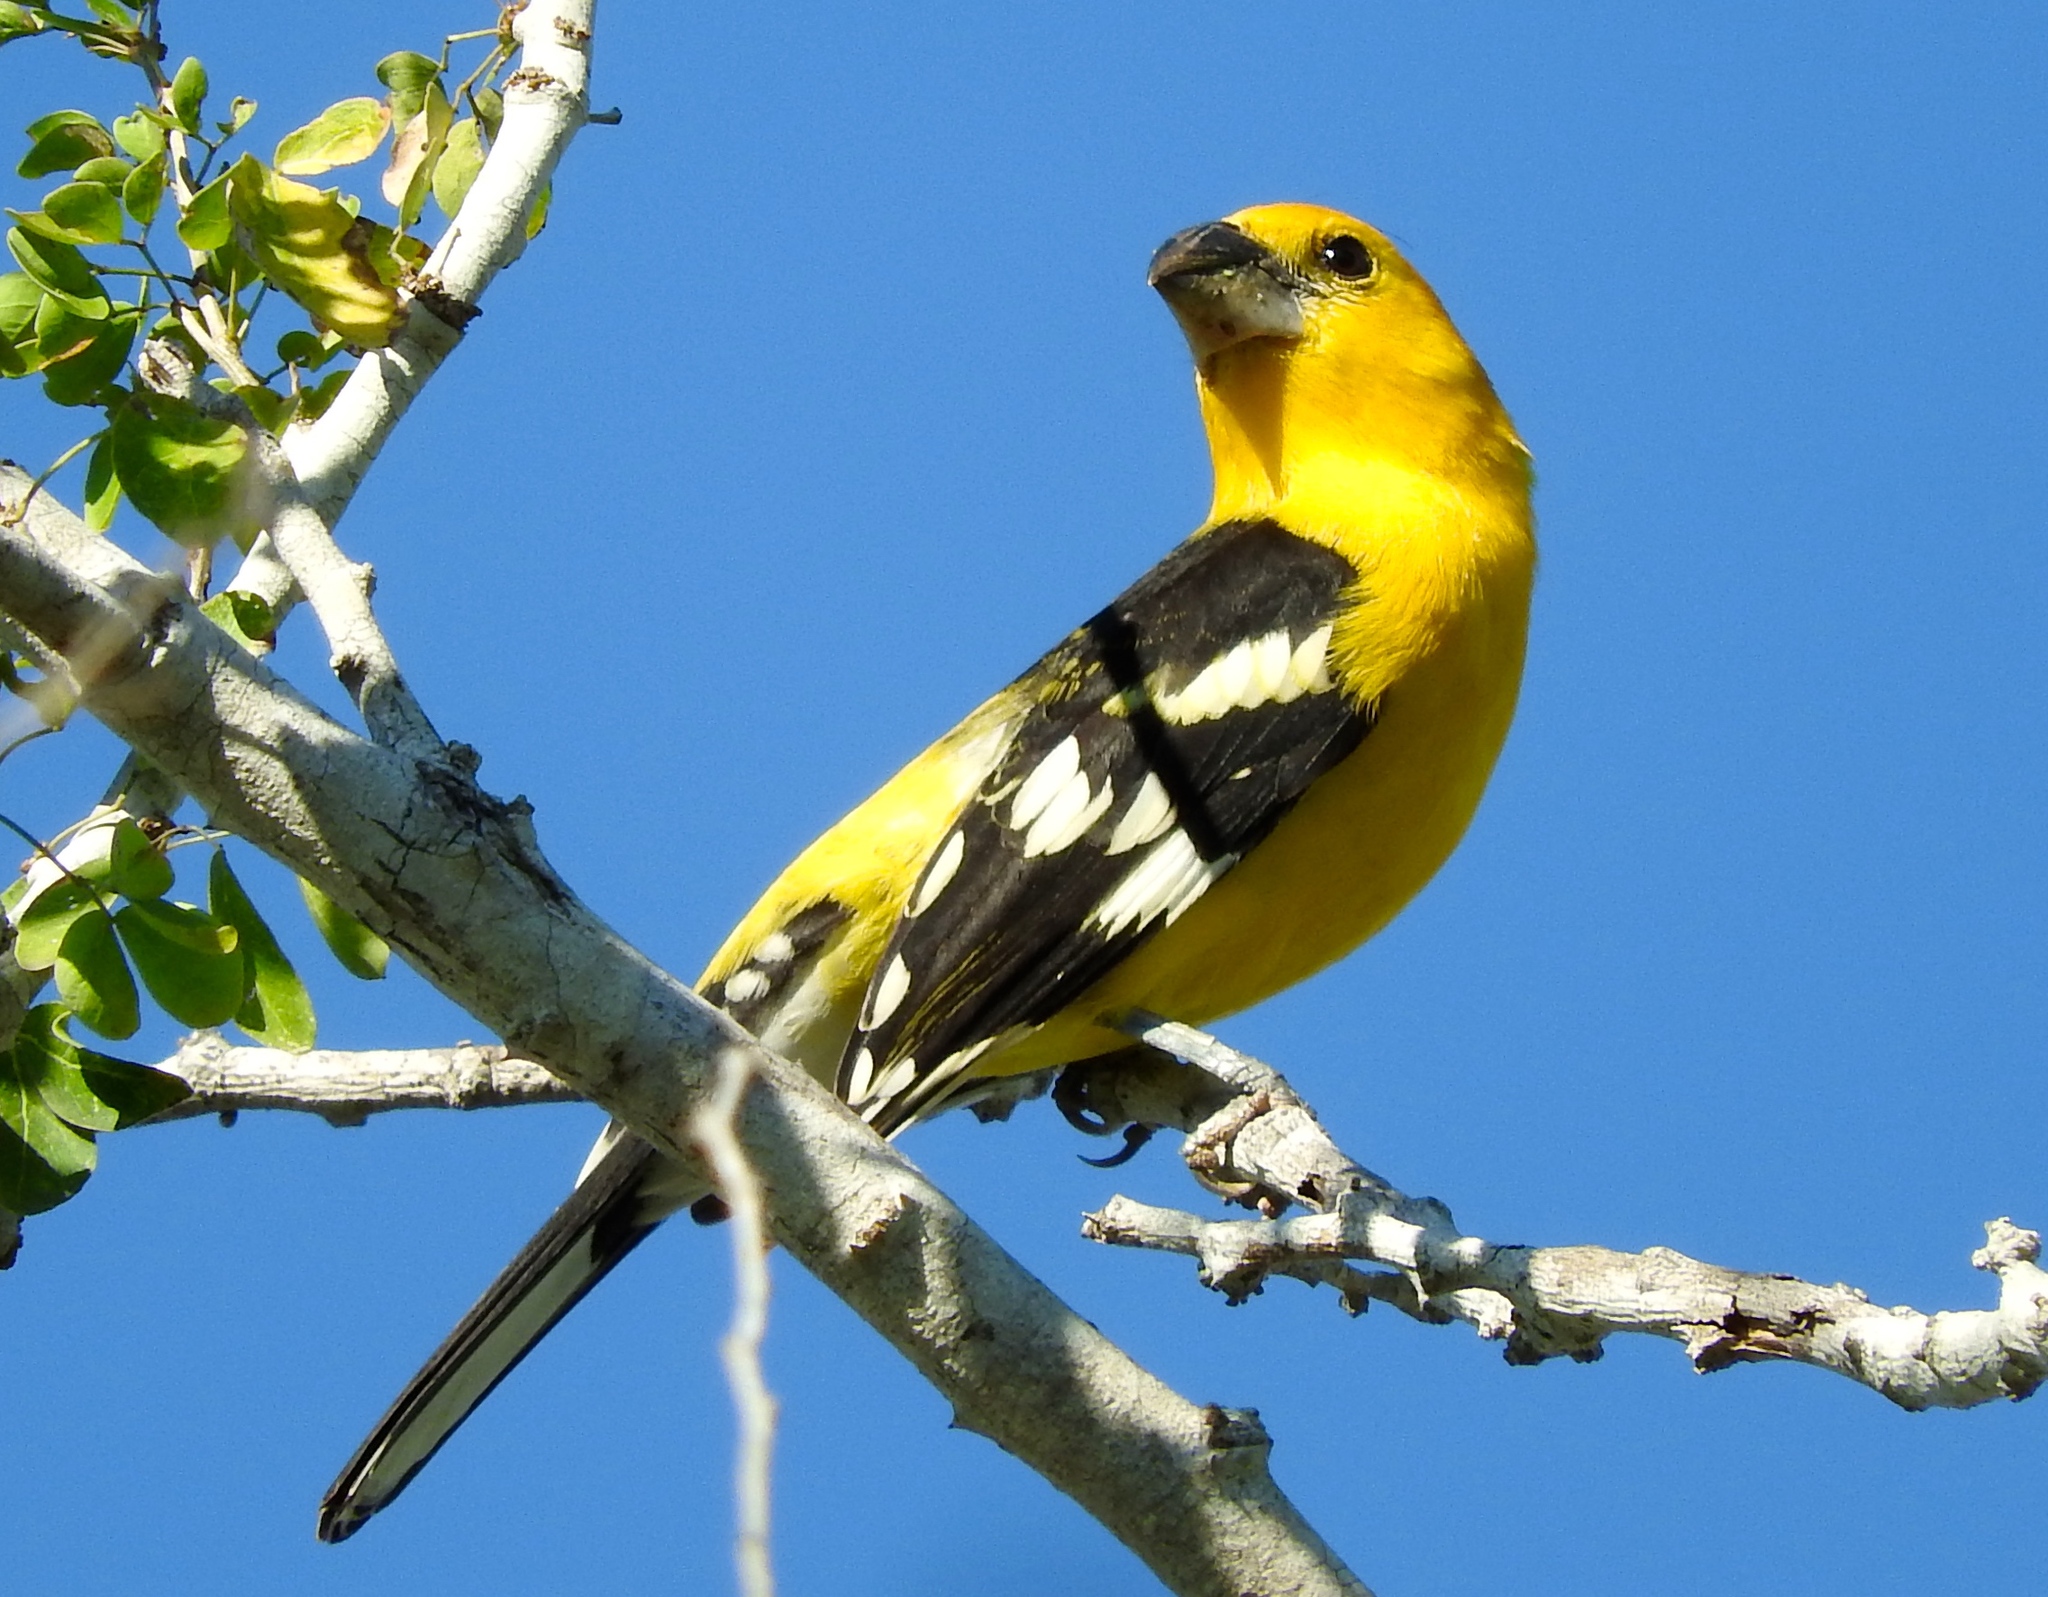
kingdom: Animalia
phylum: Chordata
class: Aves
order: Passeriformes
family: Cardinalidae
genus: Pheucticus
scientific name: Pheucticus chrysopeplus
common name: Yellow grosbeak
